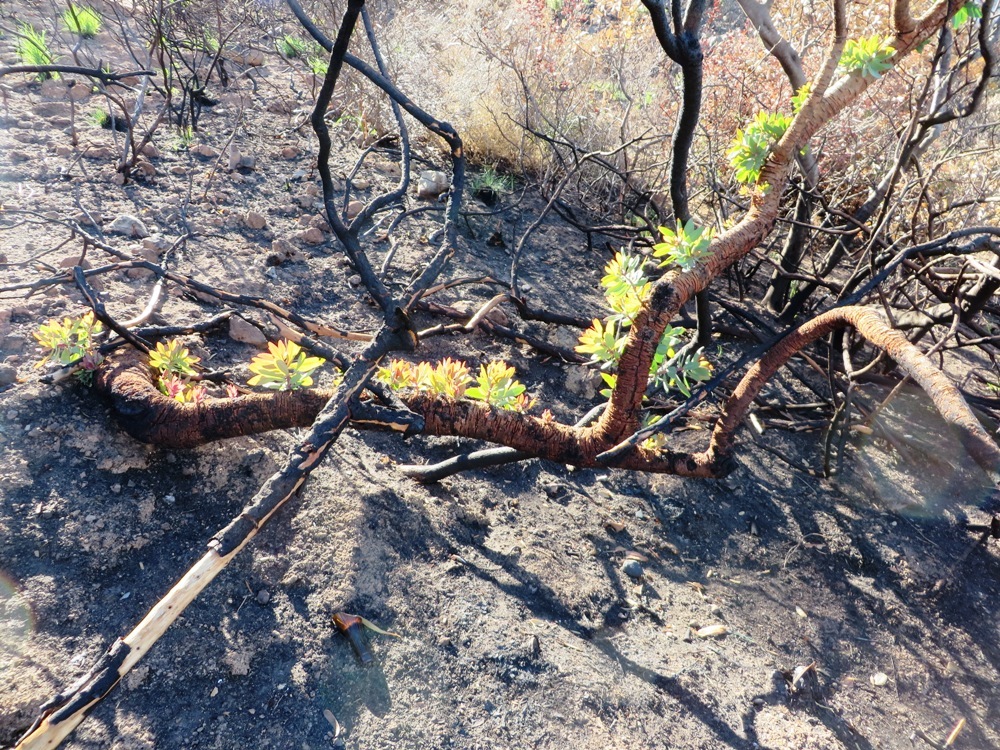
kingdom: Plantae
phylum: Tracheophyta
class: Magnoliopsida
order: Proteales
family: Proteaceae
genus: Protea
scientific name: Protea nitida
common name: Tree protea
